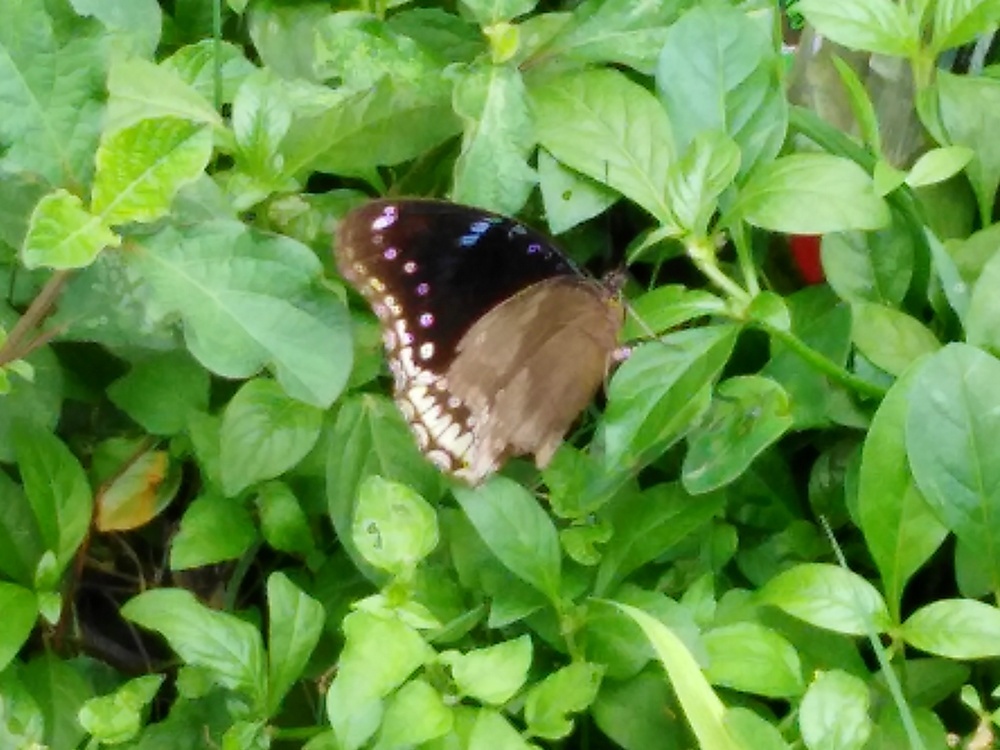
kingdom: Animalia
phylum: Arthropoda
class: Insecta
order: Lepidoptera
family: Nymphalidae
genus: Hypolimnas
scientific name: Hypolimnas bolina
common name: Great eggfly
